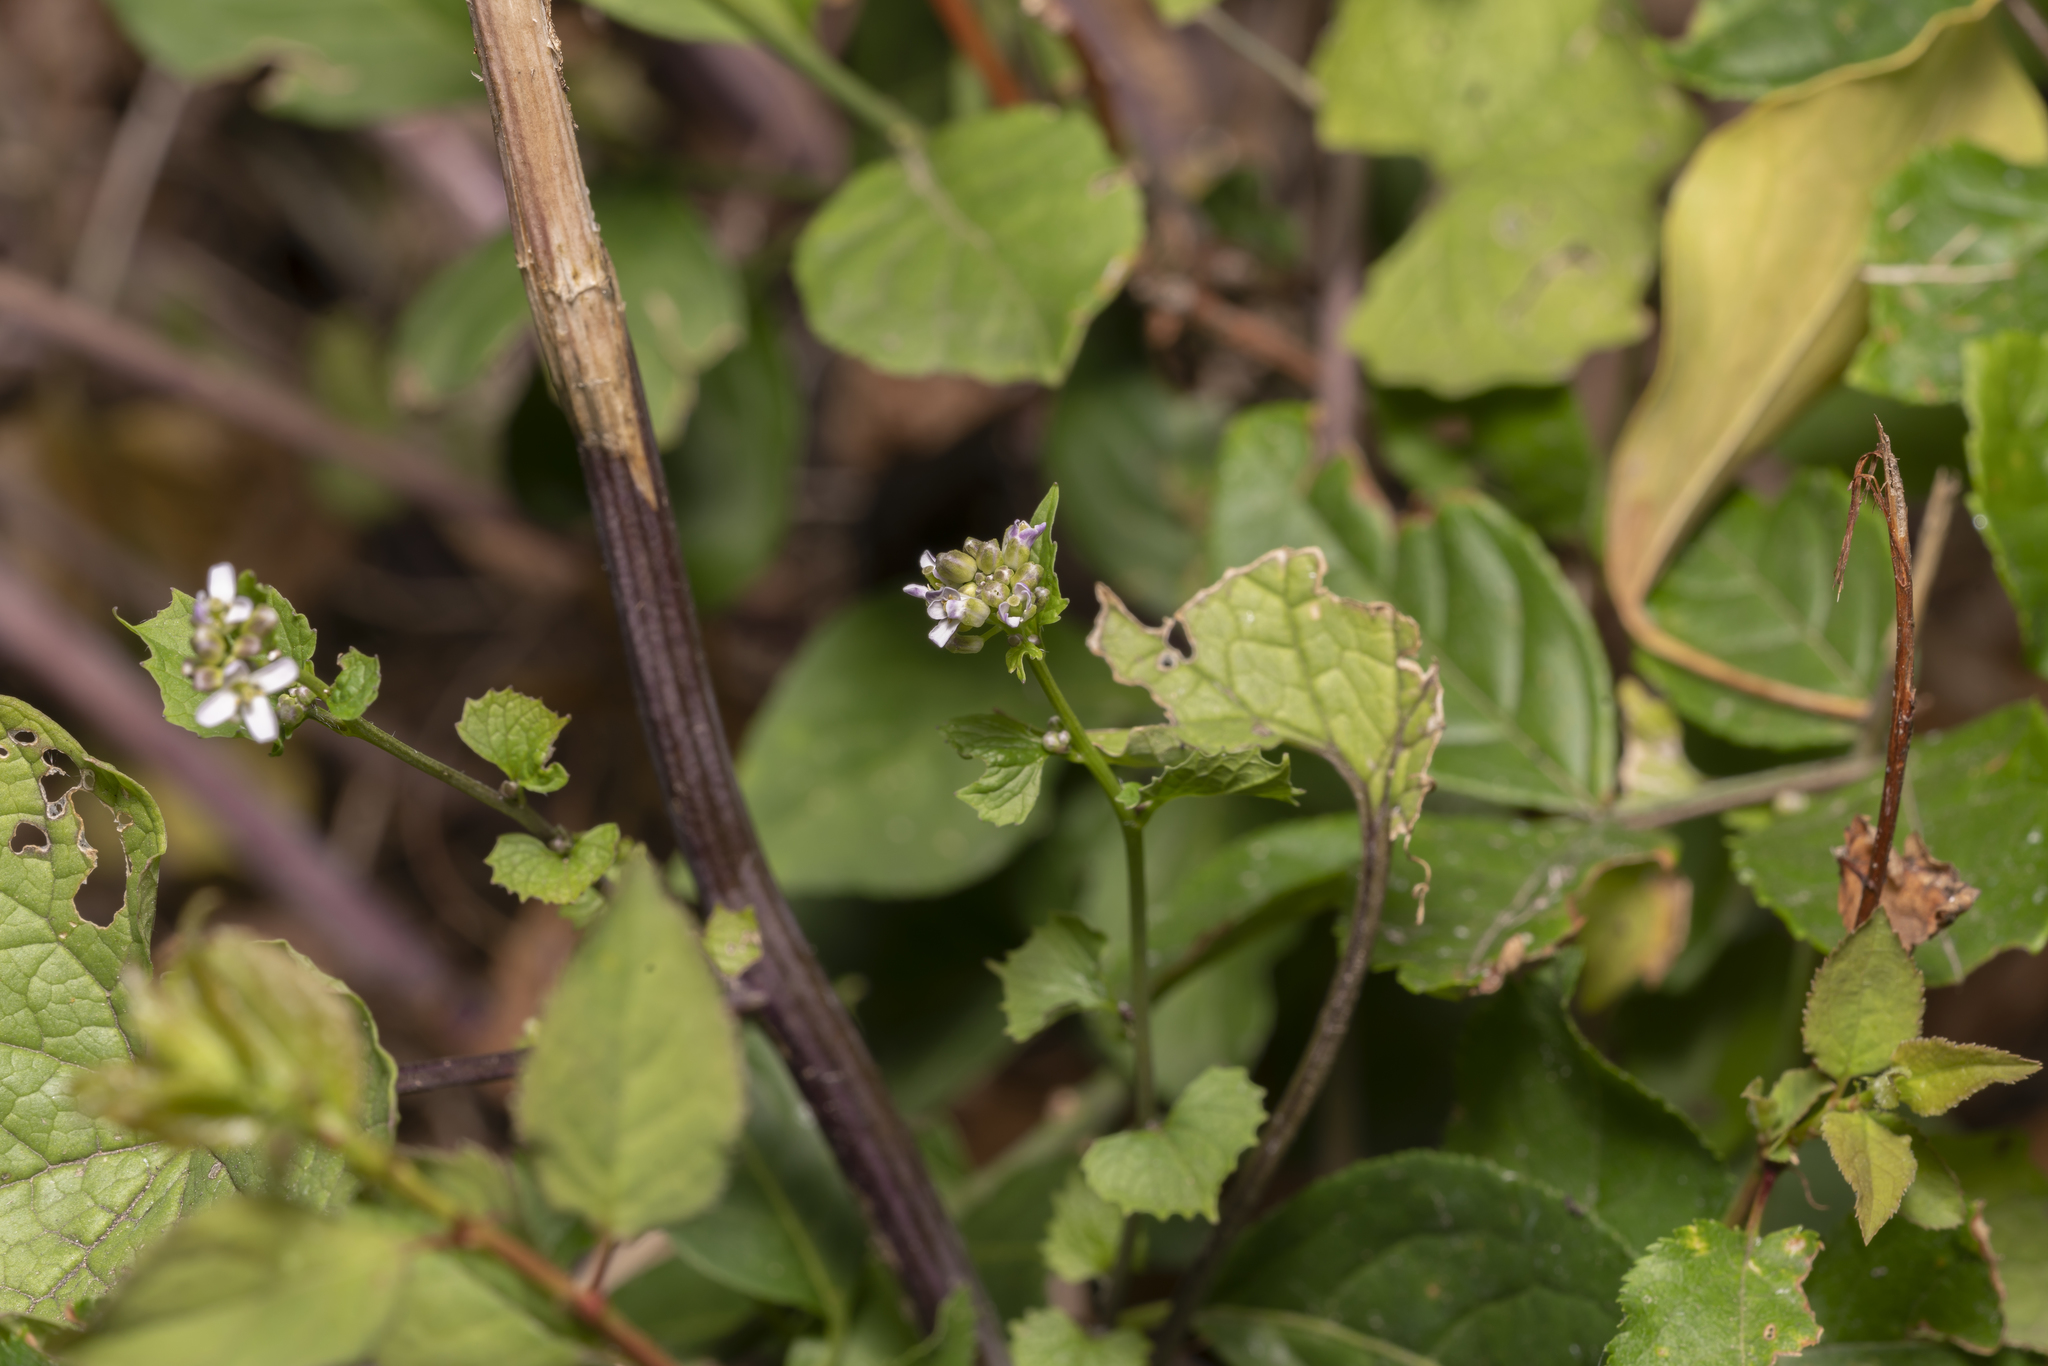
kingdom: Plantae
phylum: Tracheophyta
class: Magnoliopsida
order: Brassicales
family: Brassicaceae
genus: Alliaria
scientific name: Alliaria petiolata
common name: Garlic mustard
